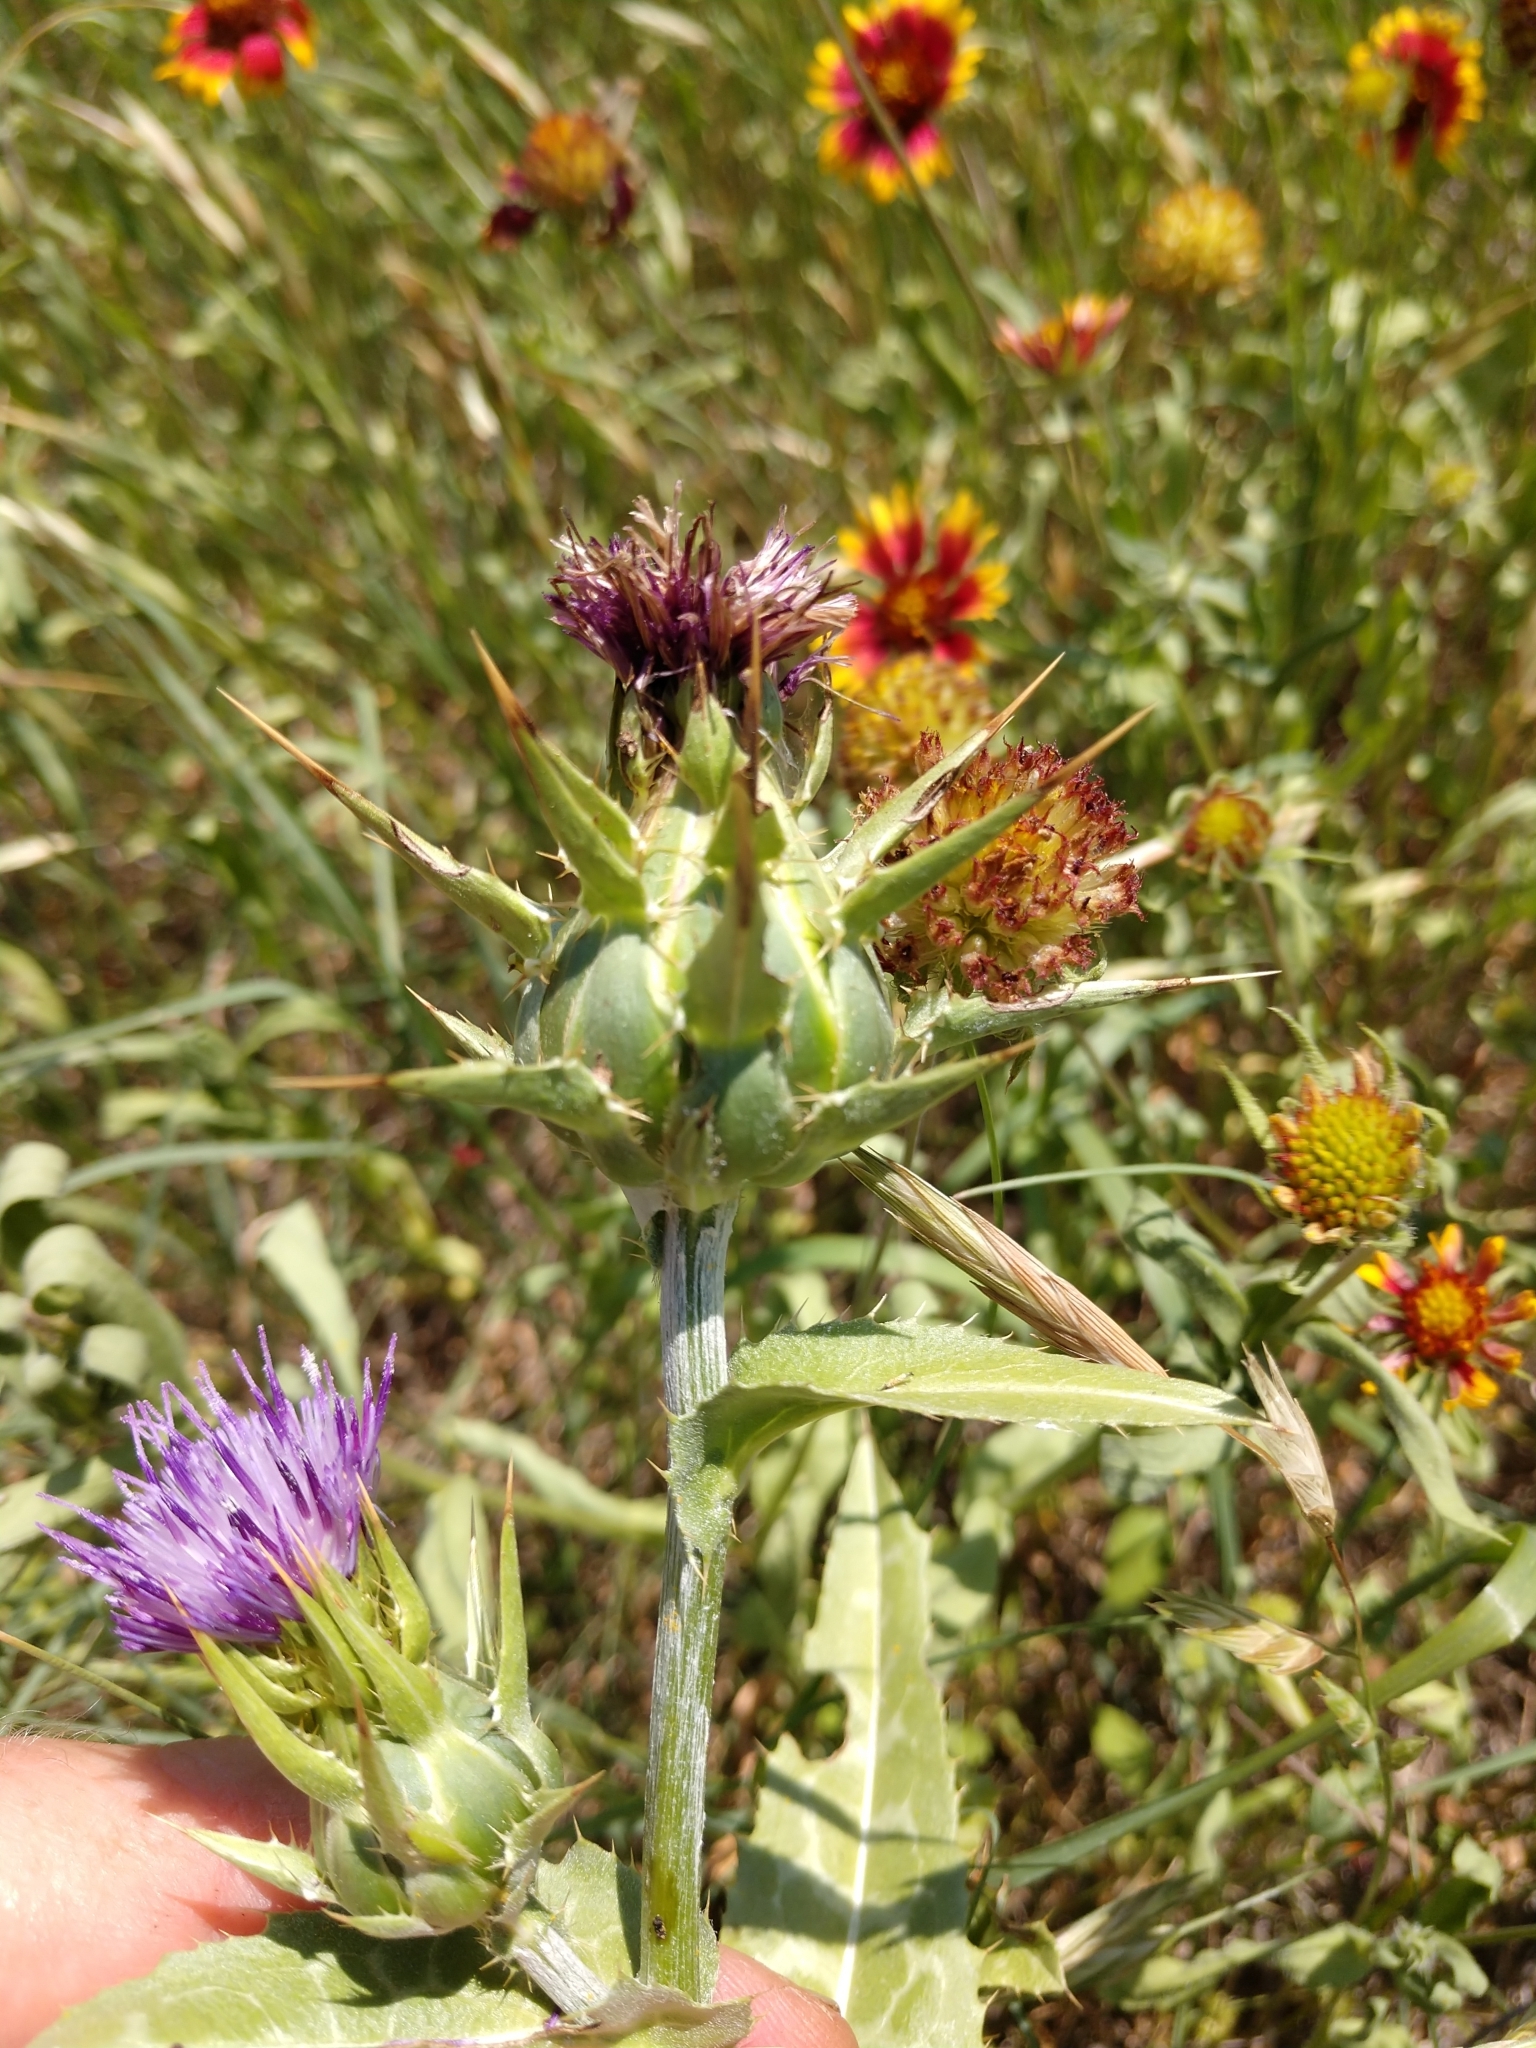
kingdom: Plantae
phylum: Tracheophyta
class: Magnoliopsida
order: Asterales
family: Asteraceae
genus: Silybum
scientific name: Silybum marianum
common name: Milk thistle
